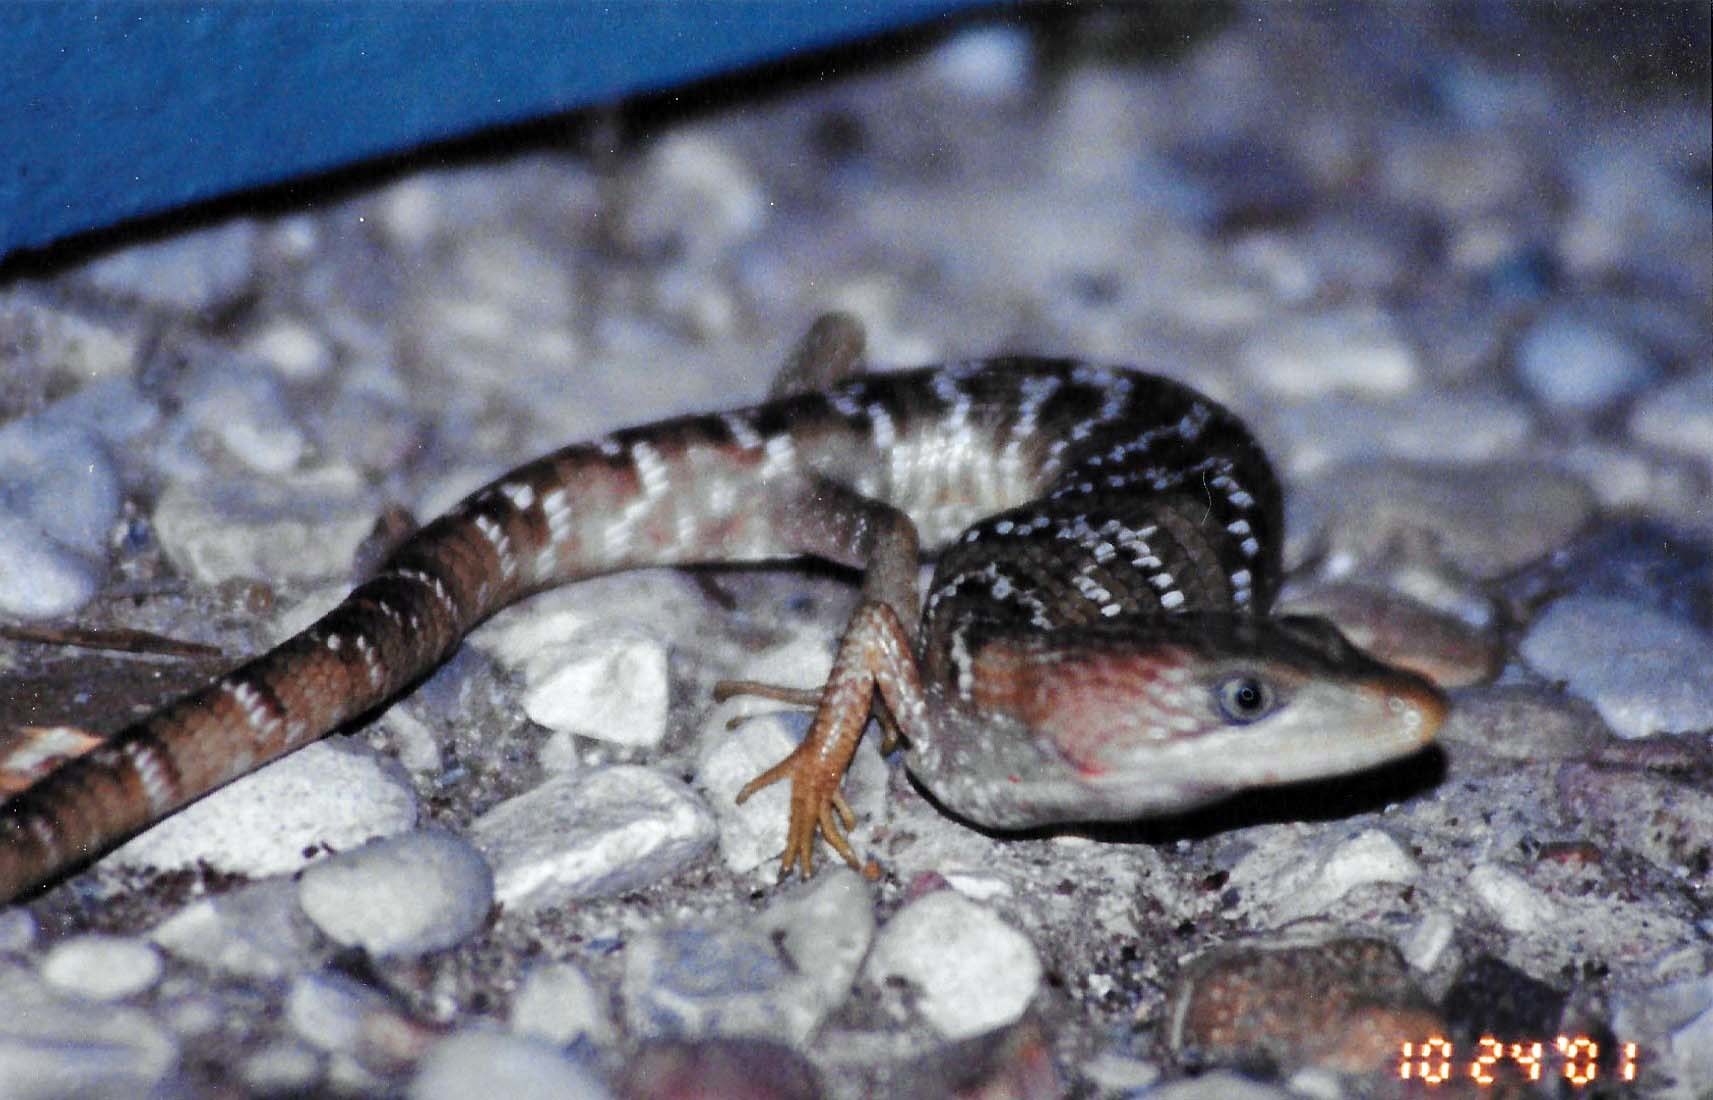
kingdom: Animalia
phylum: Chordata
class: Squamata
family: Anguidae
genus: Gerrhonotus
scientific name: Gerrhonotus infernalis
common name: Texas alligator lizard
